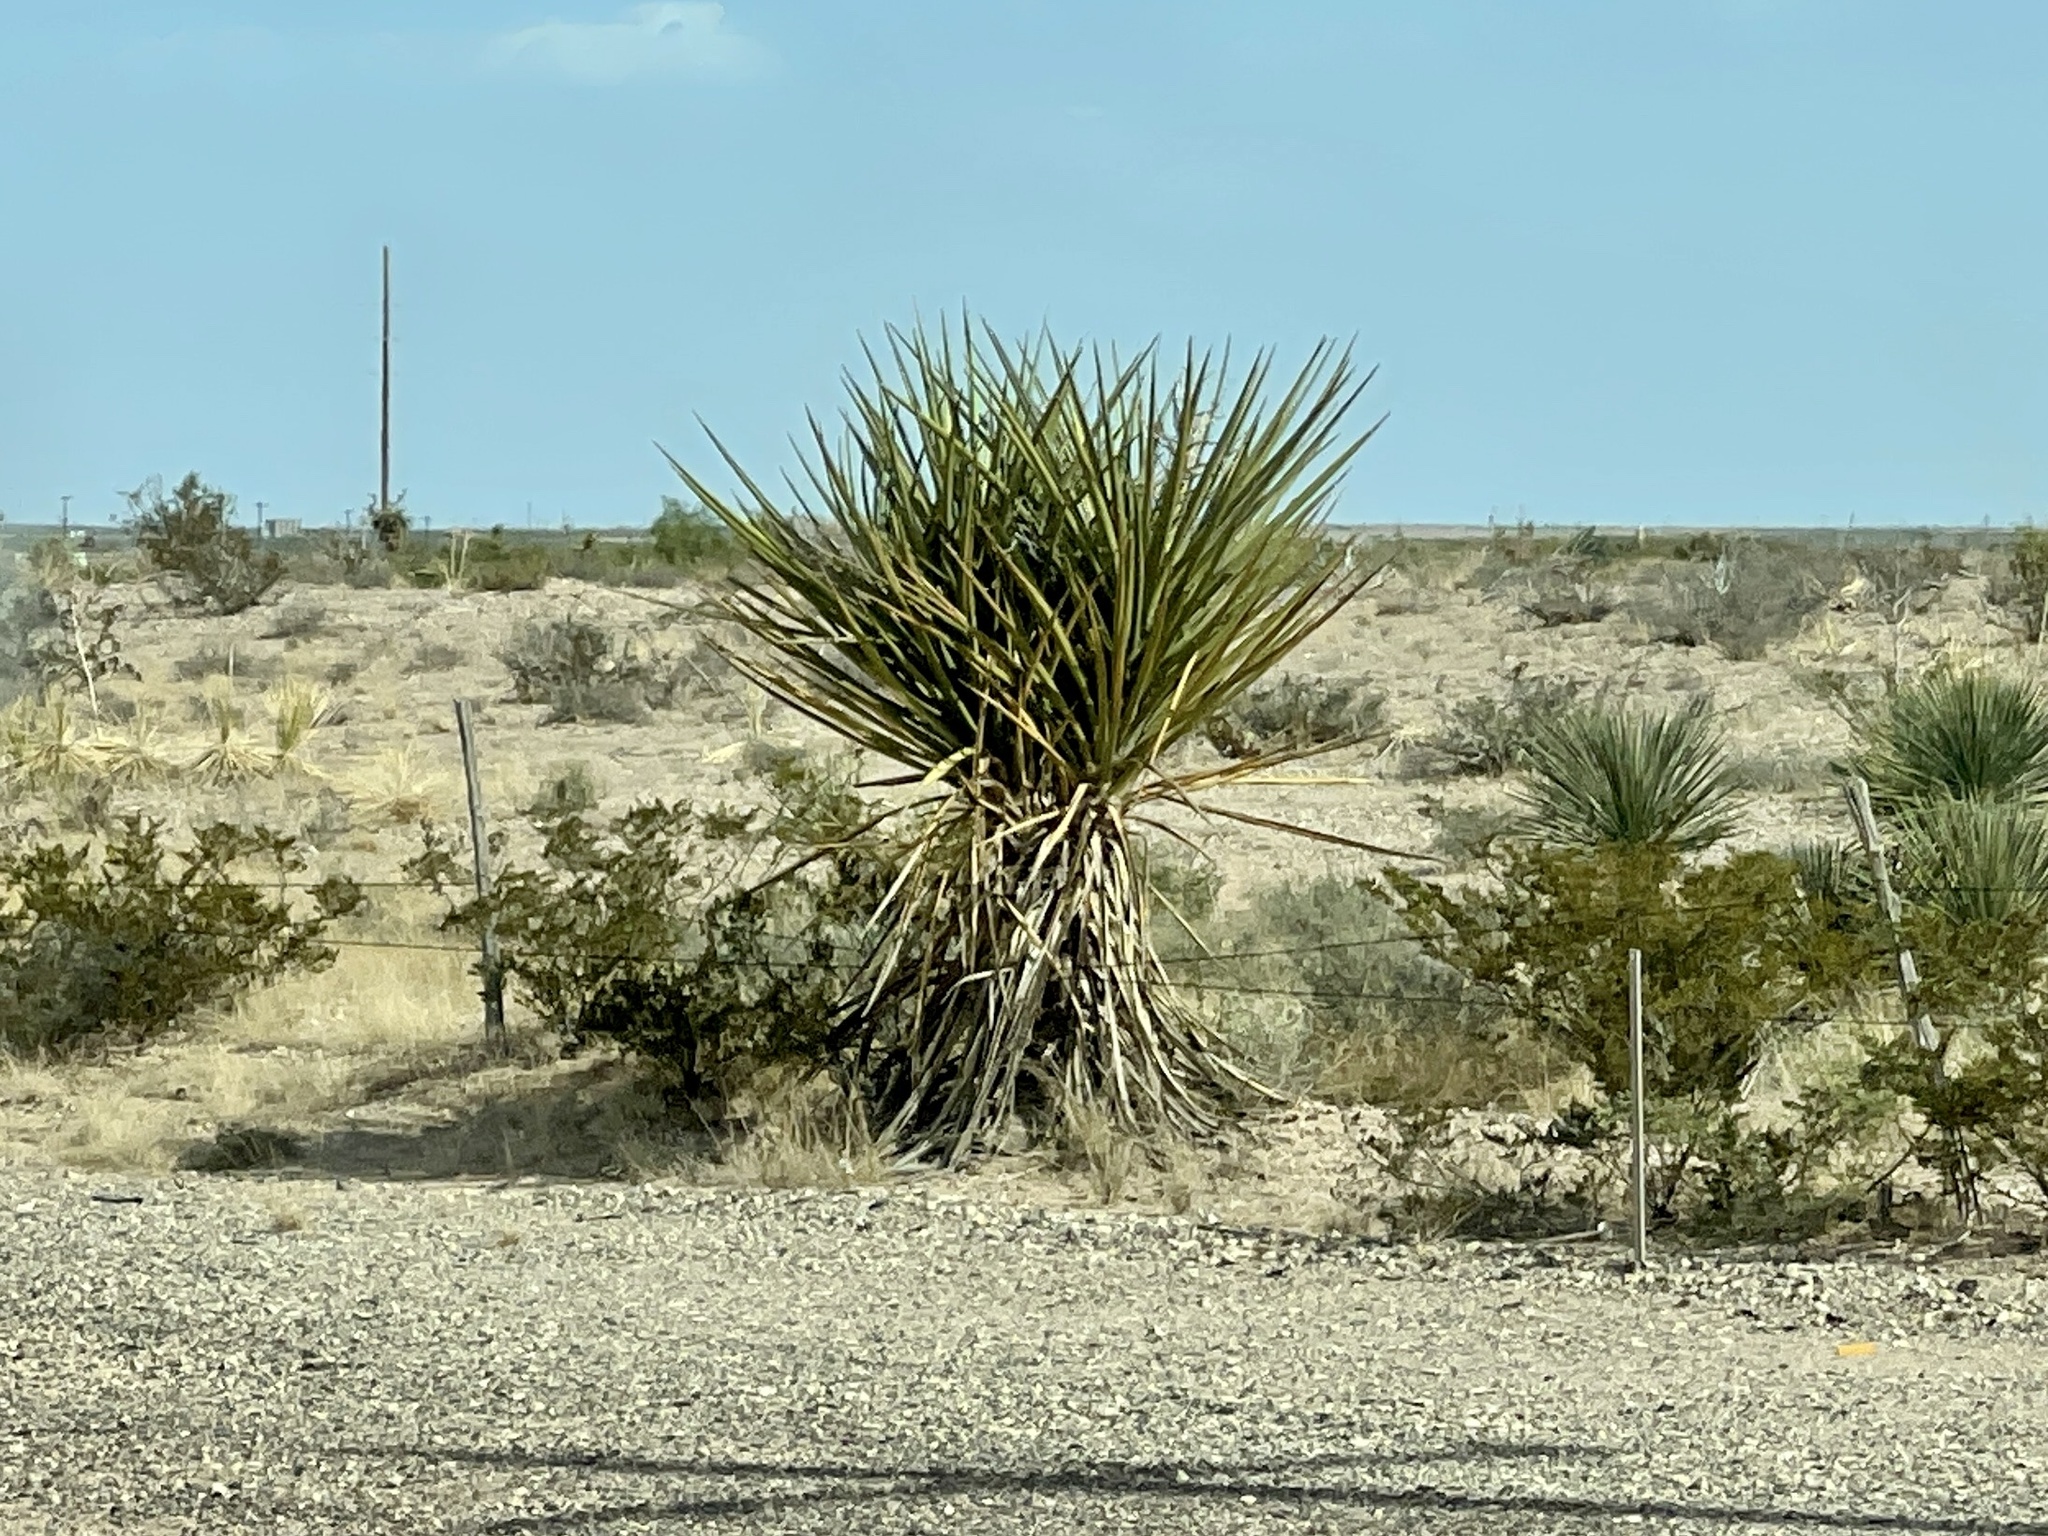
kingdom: Plantae
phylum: Tracheophyta
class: Liliopsida
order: Asparagales
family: Asparagaceae
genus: Yucca
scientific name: Yucca treculiana
